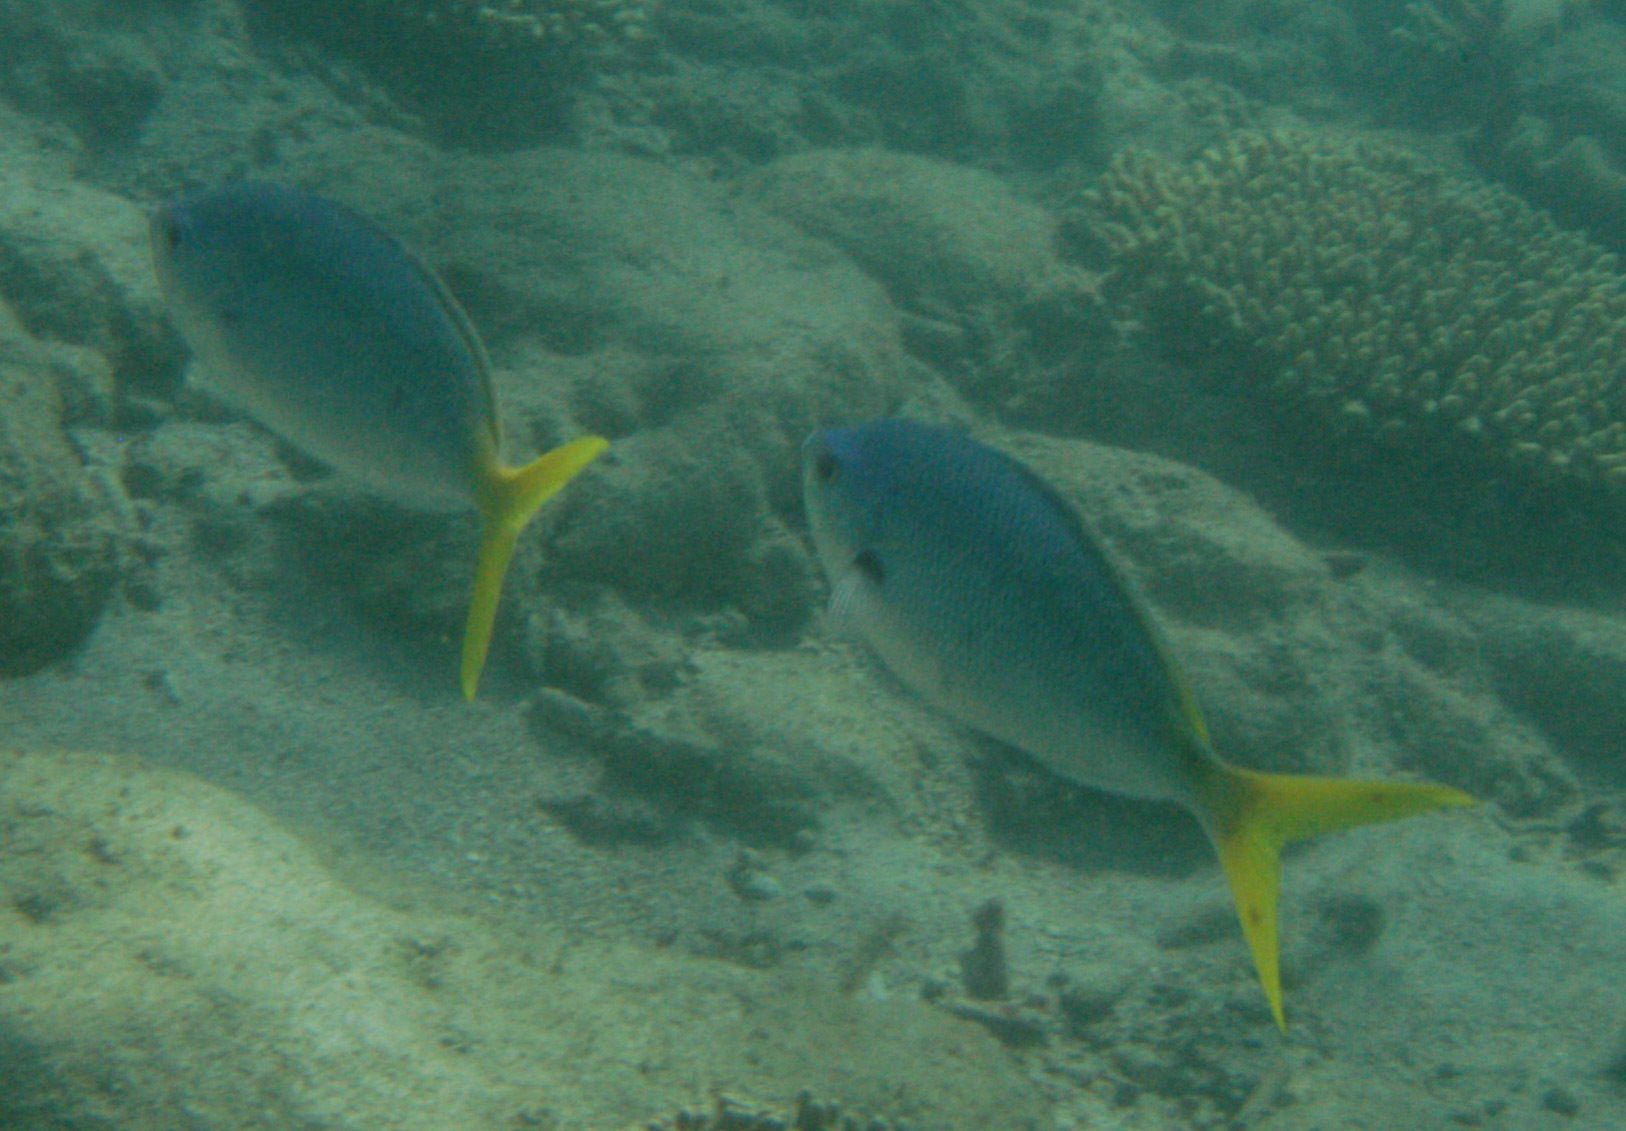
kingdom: Animalia
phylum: Chordata
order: Perciformes
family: Caesionidae
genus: Caesio
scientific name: Caesio cuning
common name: Red-bellied fusilier
